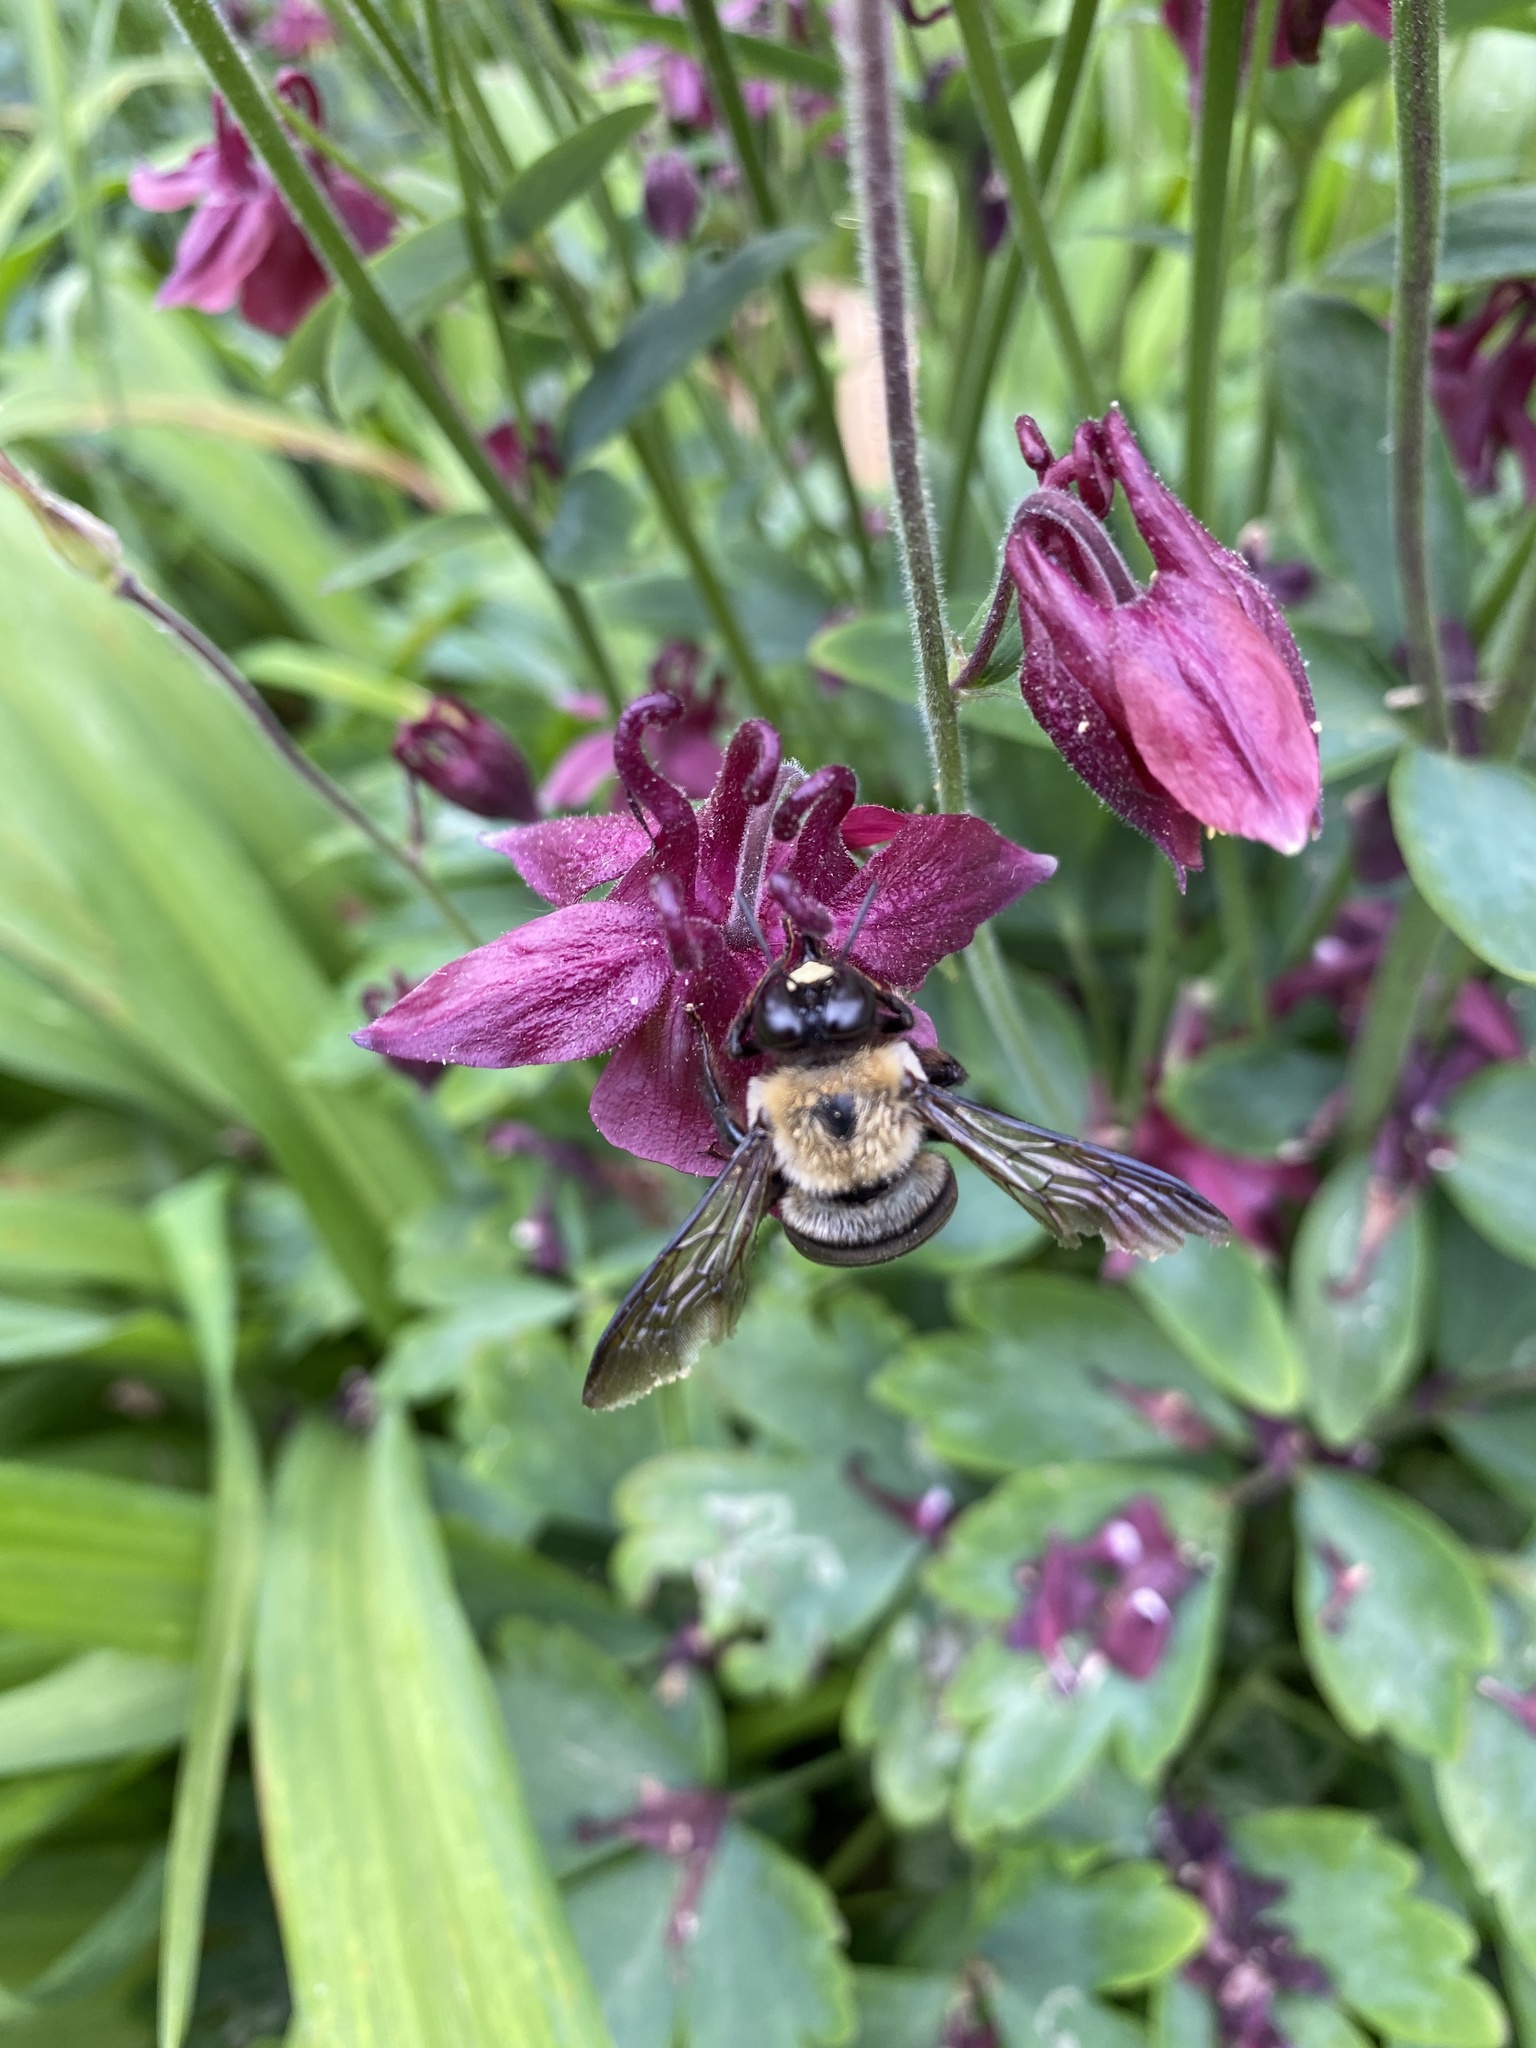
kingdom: Animalia
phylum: Arthropoda
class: Insecta
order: Hymenoptera
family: Apidae
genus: Xylocopa
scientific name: Xylocopa virginica
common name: Carpenter bee
